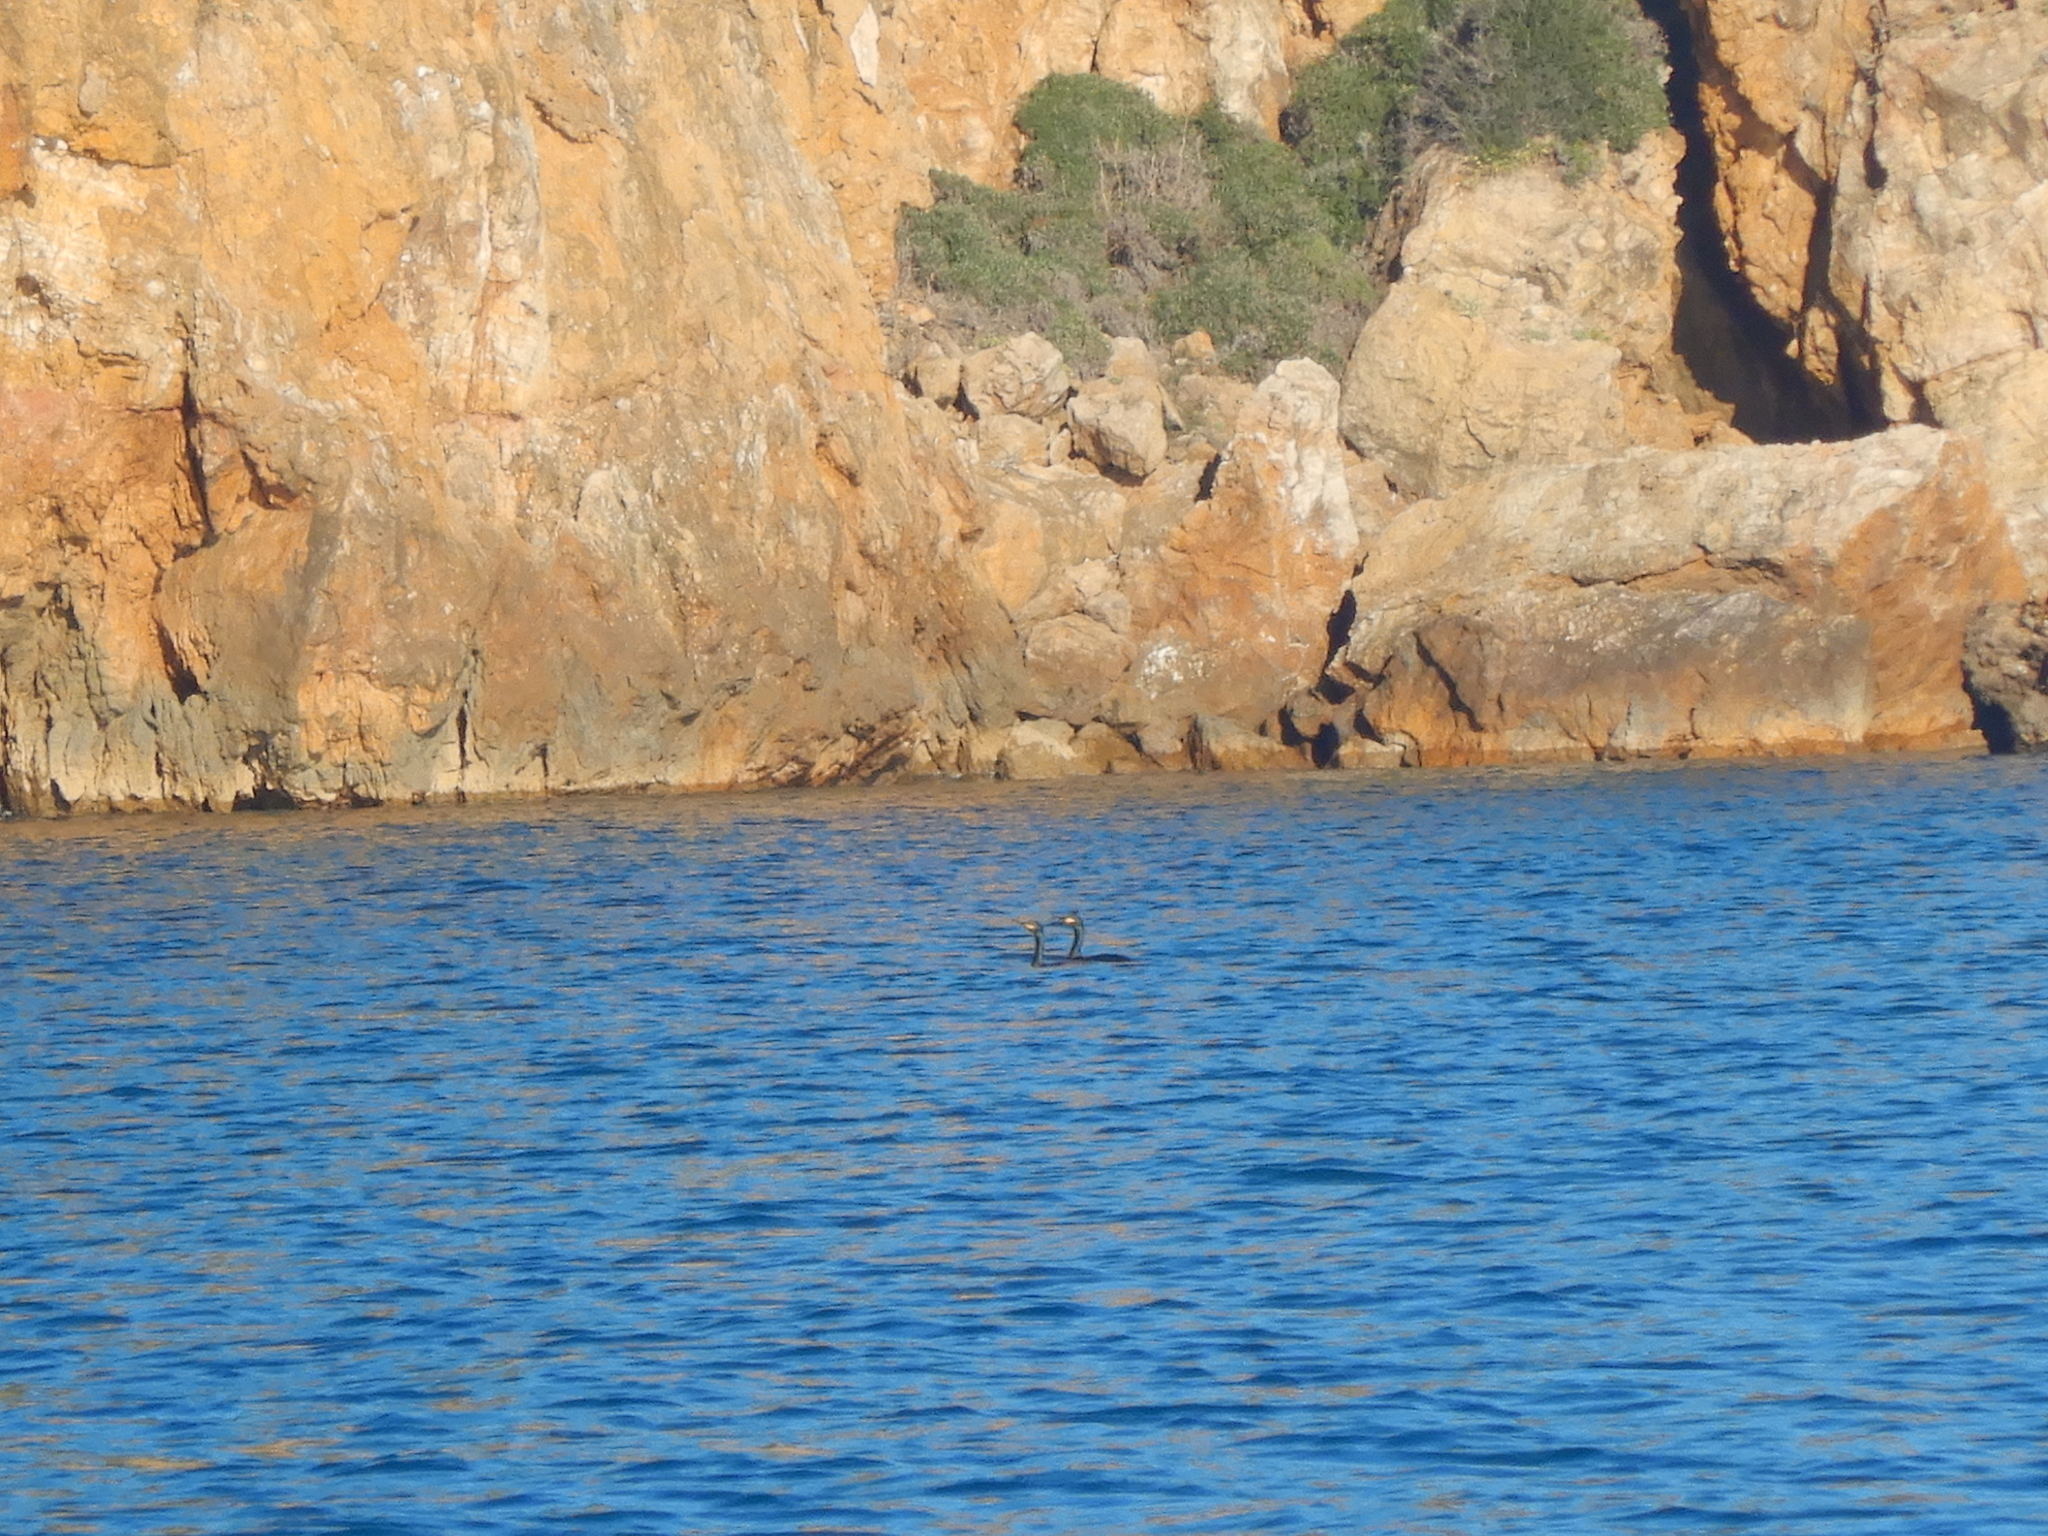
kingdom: Animalia
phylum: Chordata
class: Aves
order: Suliformes
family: Phalacrocoracidae
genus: Phalacrocorax
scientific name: Phalacrocorax aristotelis
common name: European shag
